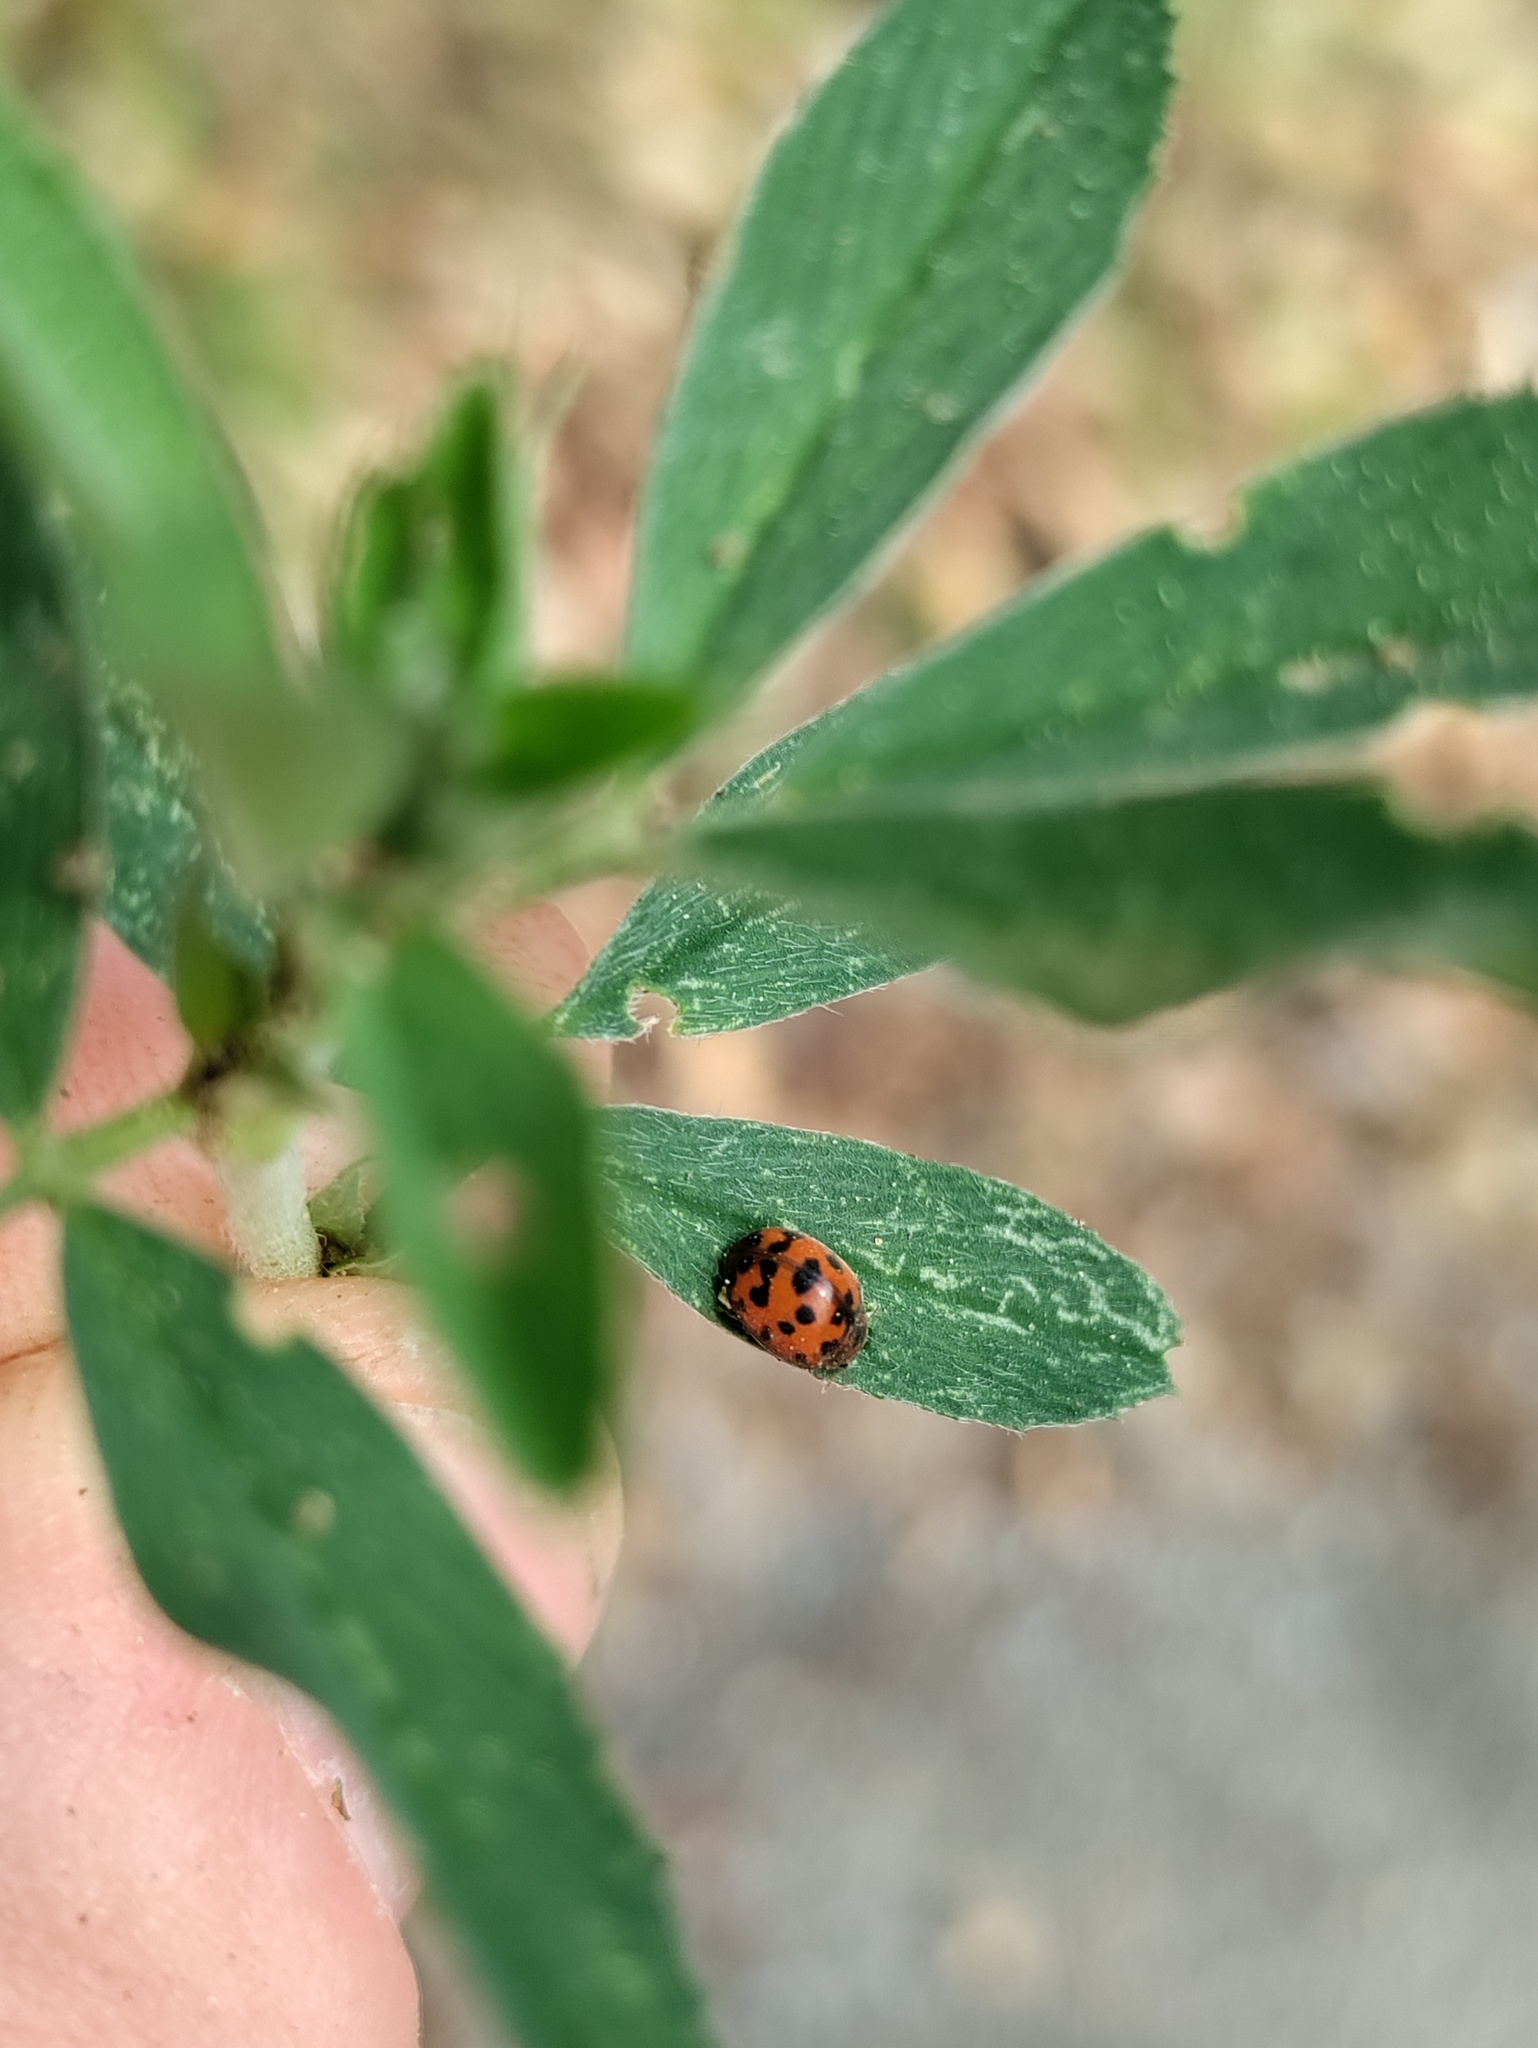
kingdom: Animalia
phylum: Arthropoda
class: Insecta
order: Coleoptera
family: Coccinellidae
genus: Subcoccinella
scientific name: Subcoccinella vigintiquatuorpunctata
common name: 24-spot ladybird
